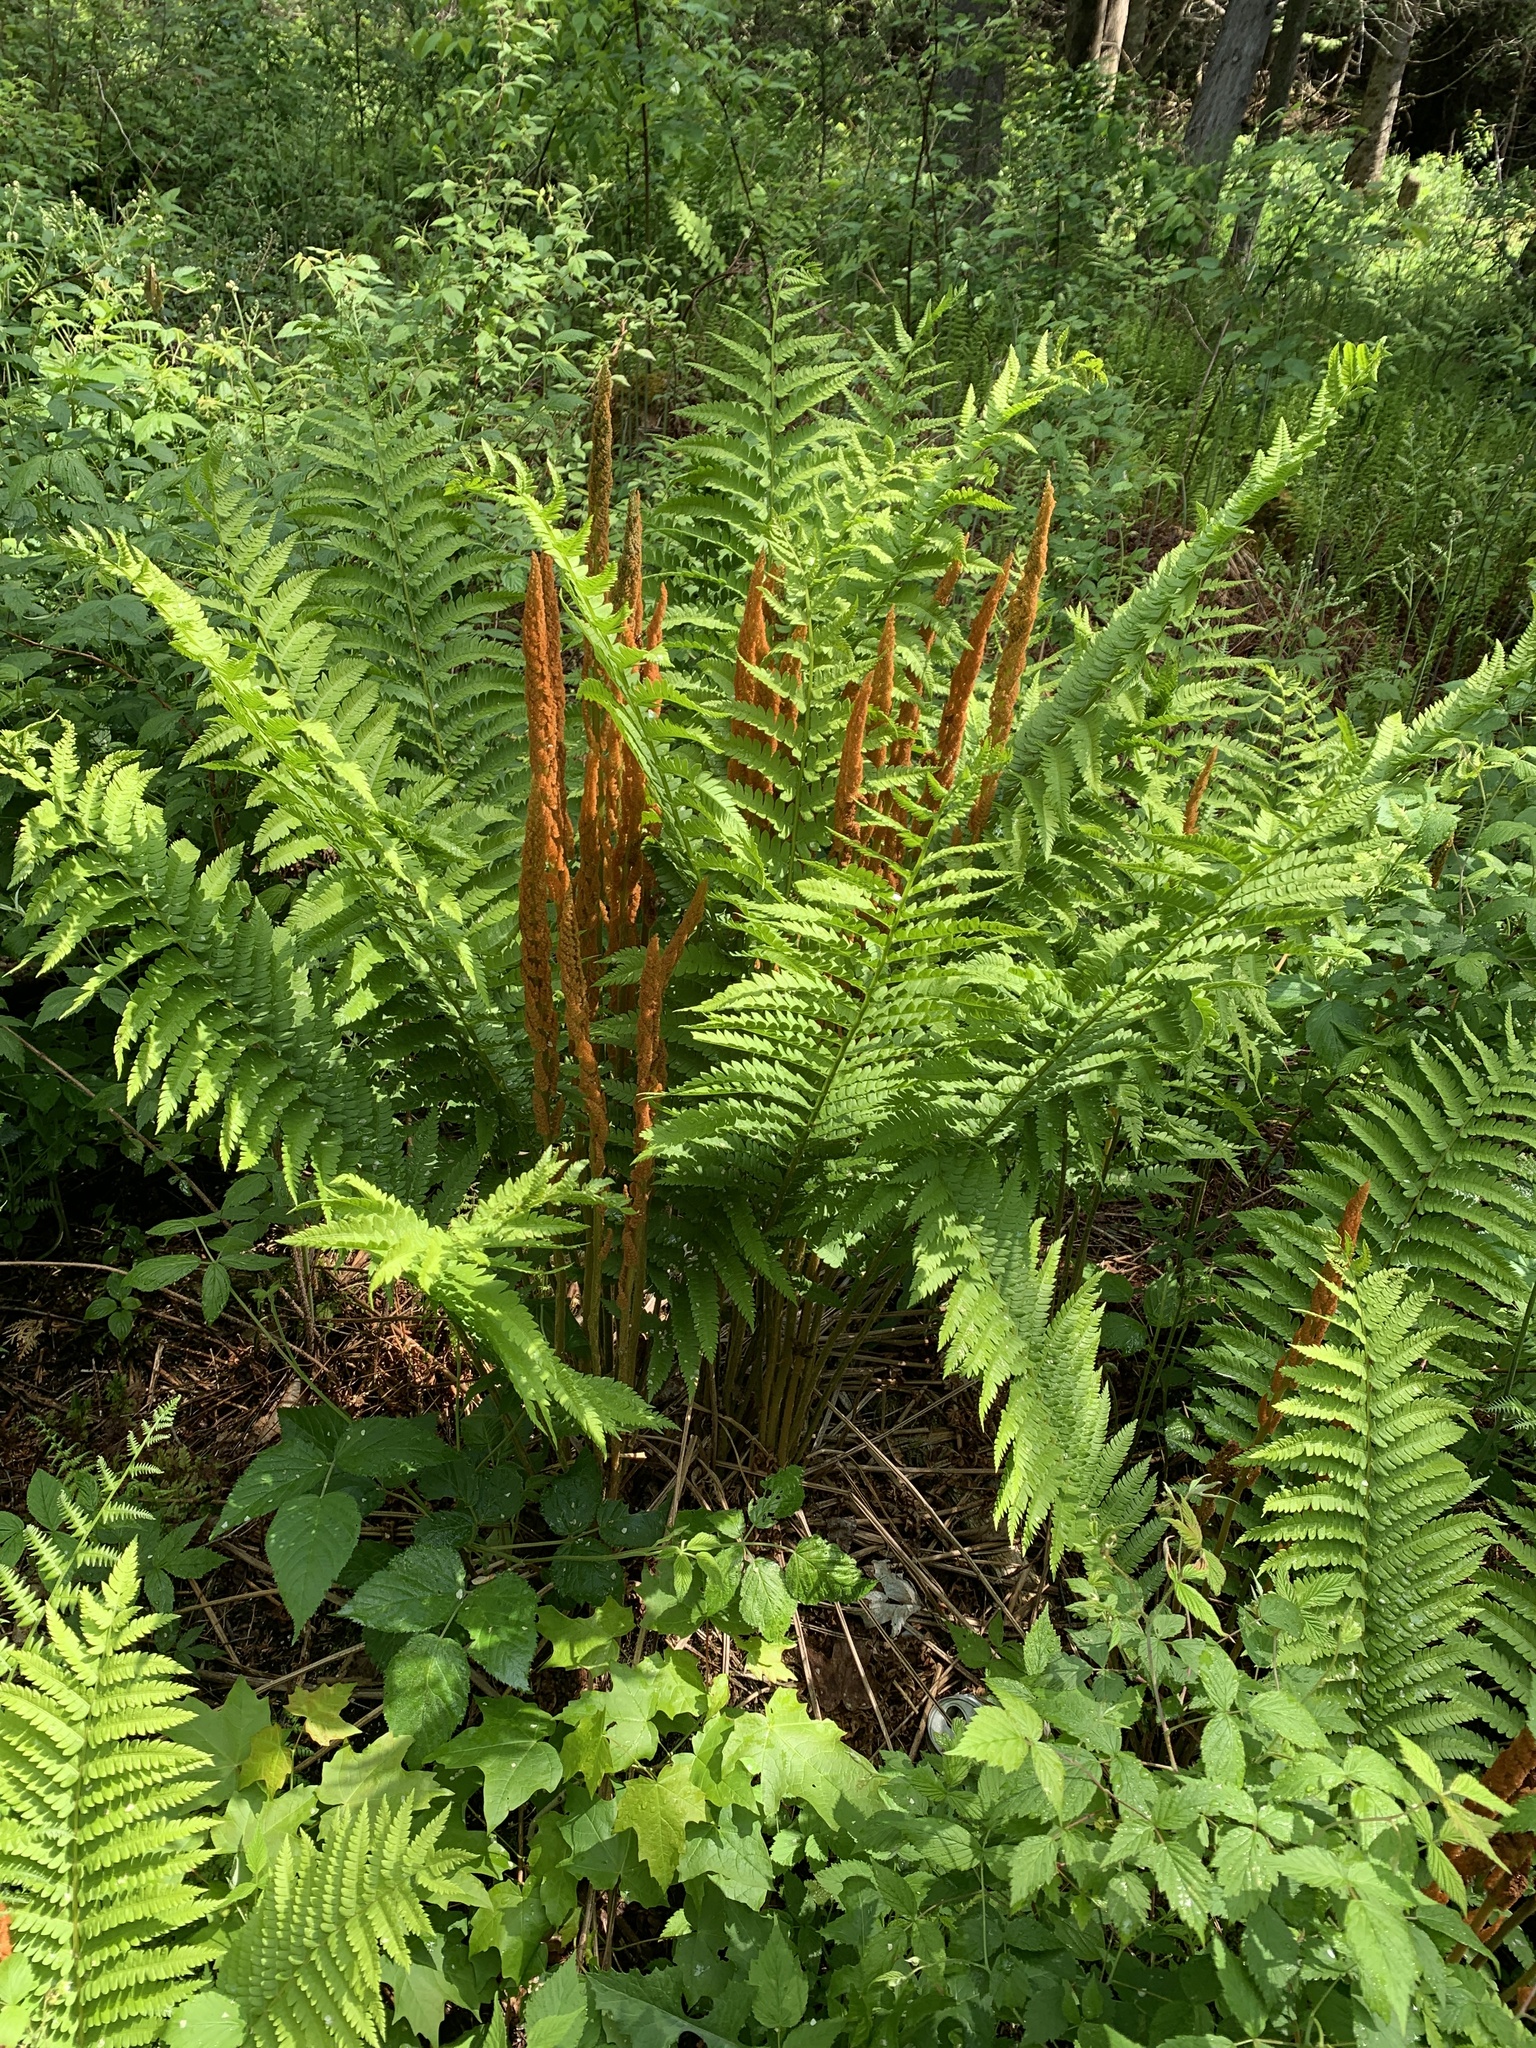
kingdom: Plantae
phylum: Tracheophyta
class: Polypodiopsida
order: Osmundales
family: Osmundaceae
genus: Osmundastrum
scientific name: Osmundastrum cinnamomeum
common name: Cinnamon fern
